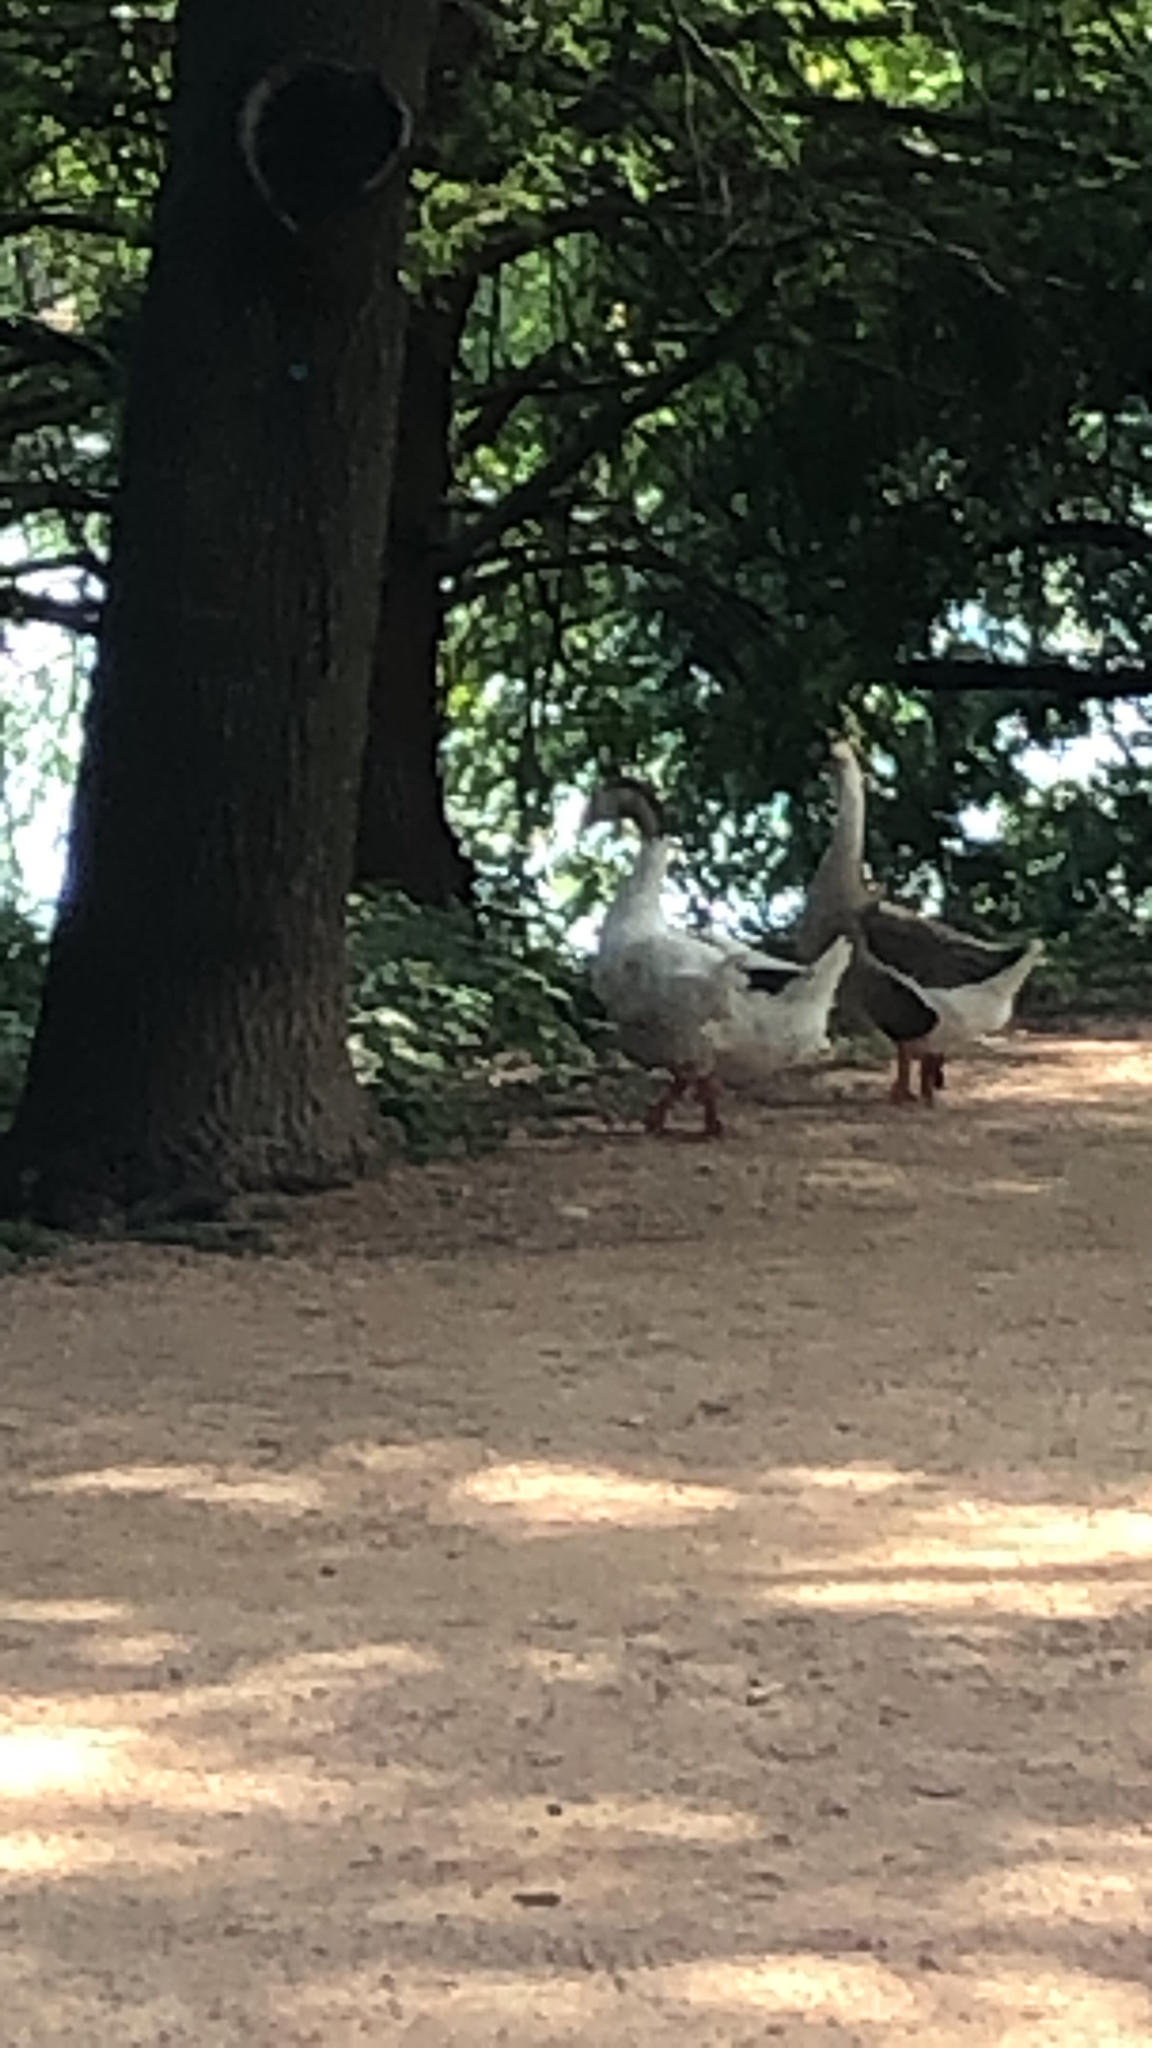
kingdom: Animalia
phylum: Chordata
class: Aves
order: Anseriformes
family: Anatidae
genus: Anser
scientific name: Anser cygnoides
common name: Swan goose
